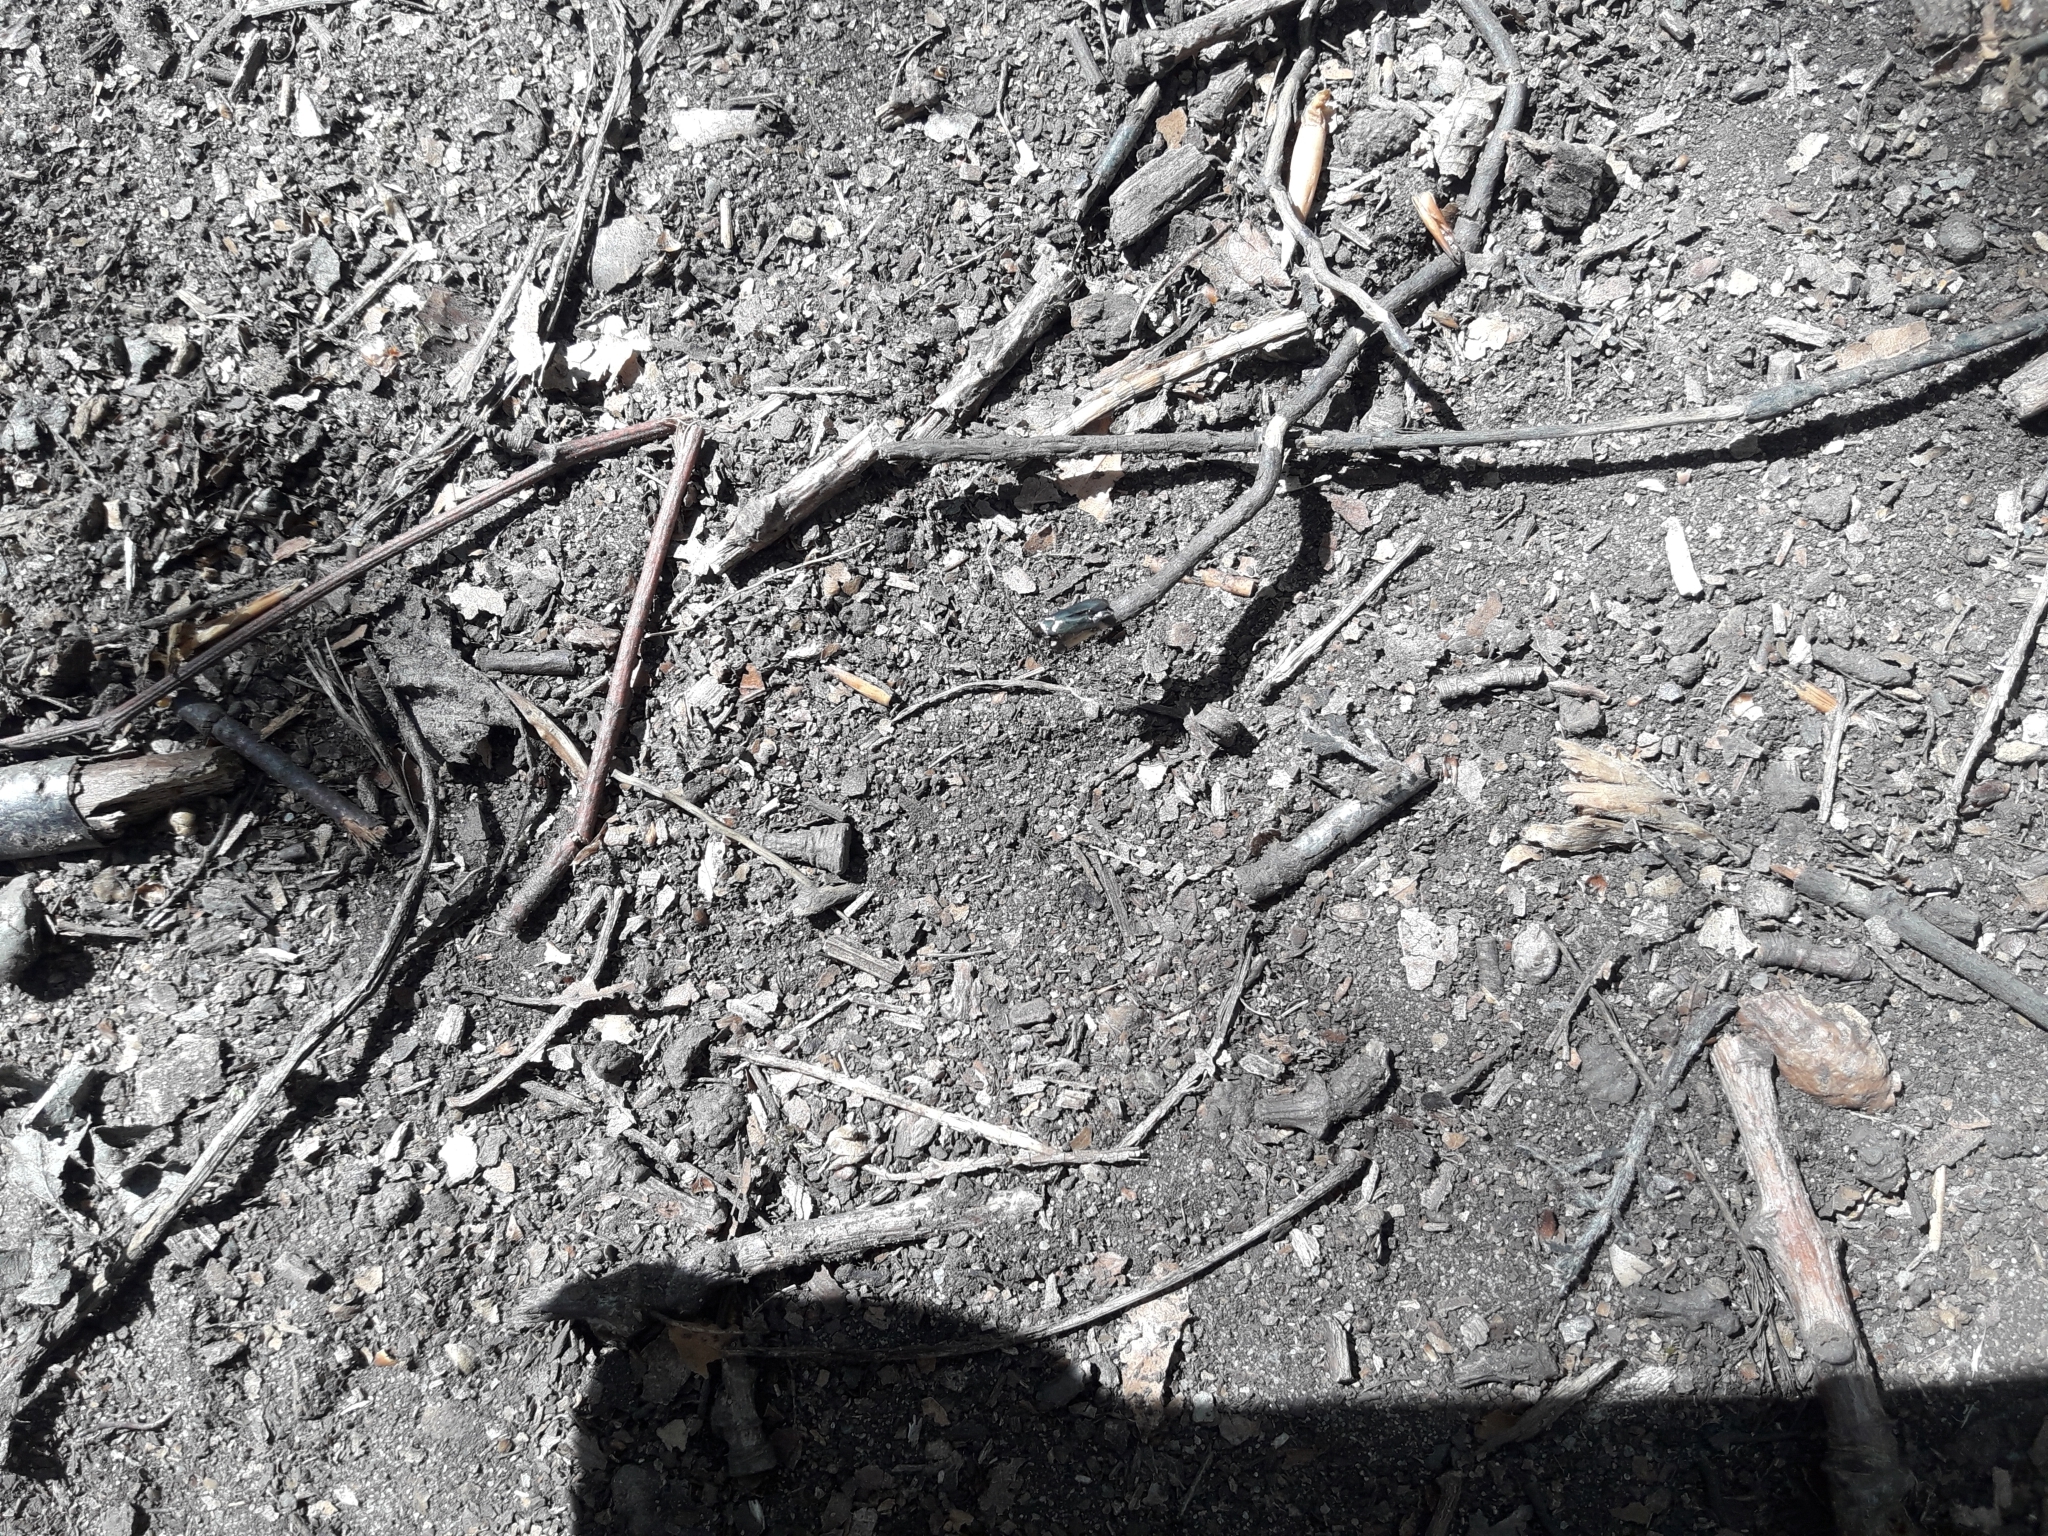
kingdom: Animalia
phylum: Arthropoda
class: Insecta
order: Lepidoptera
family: Adelidae
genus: Adela
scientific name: Adela viridella
